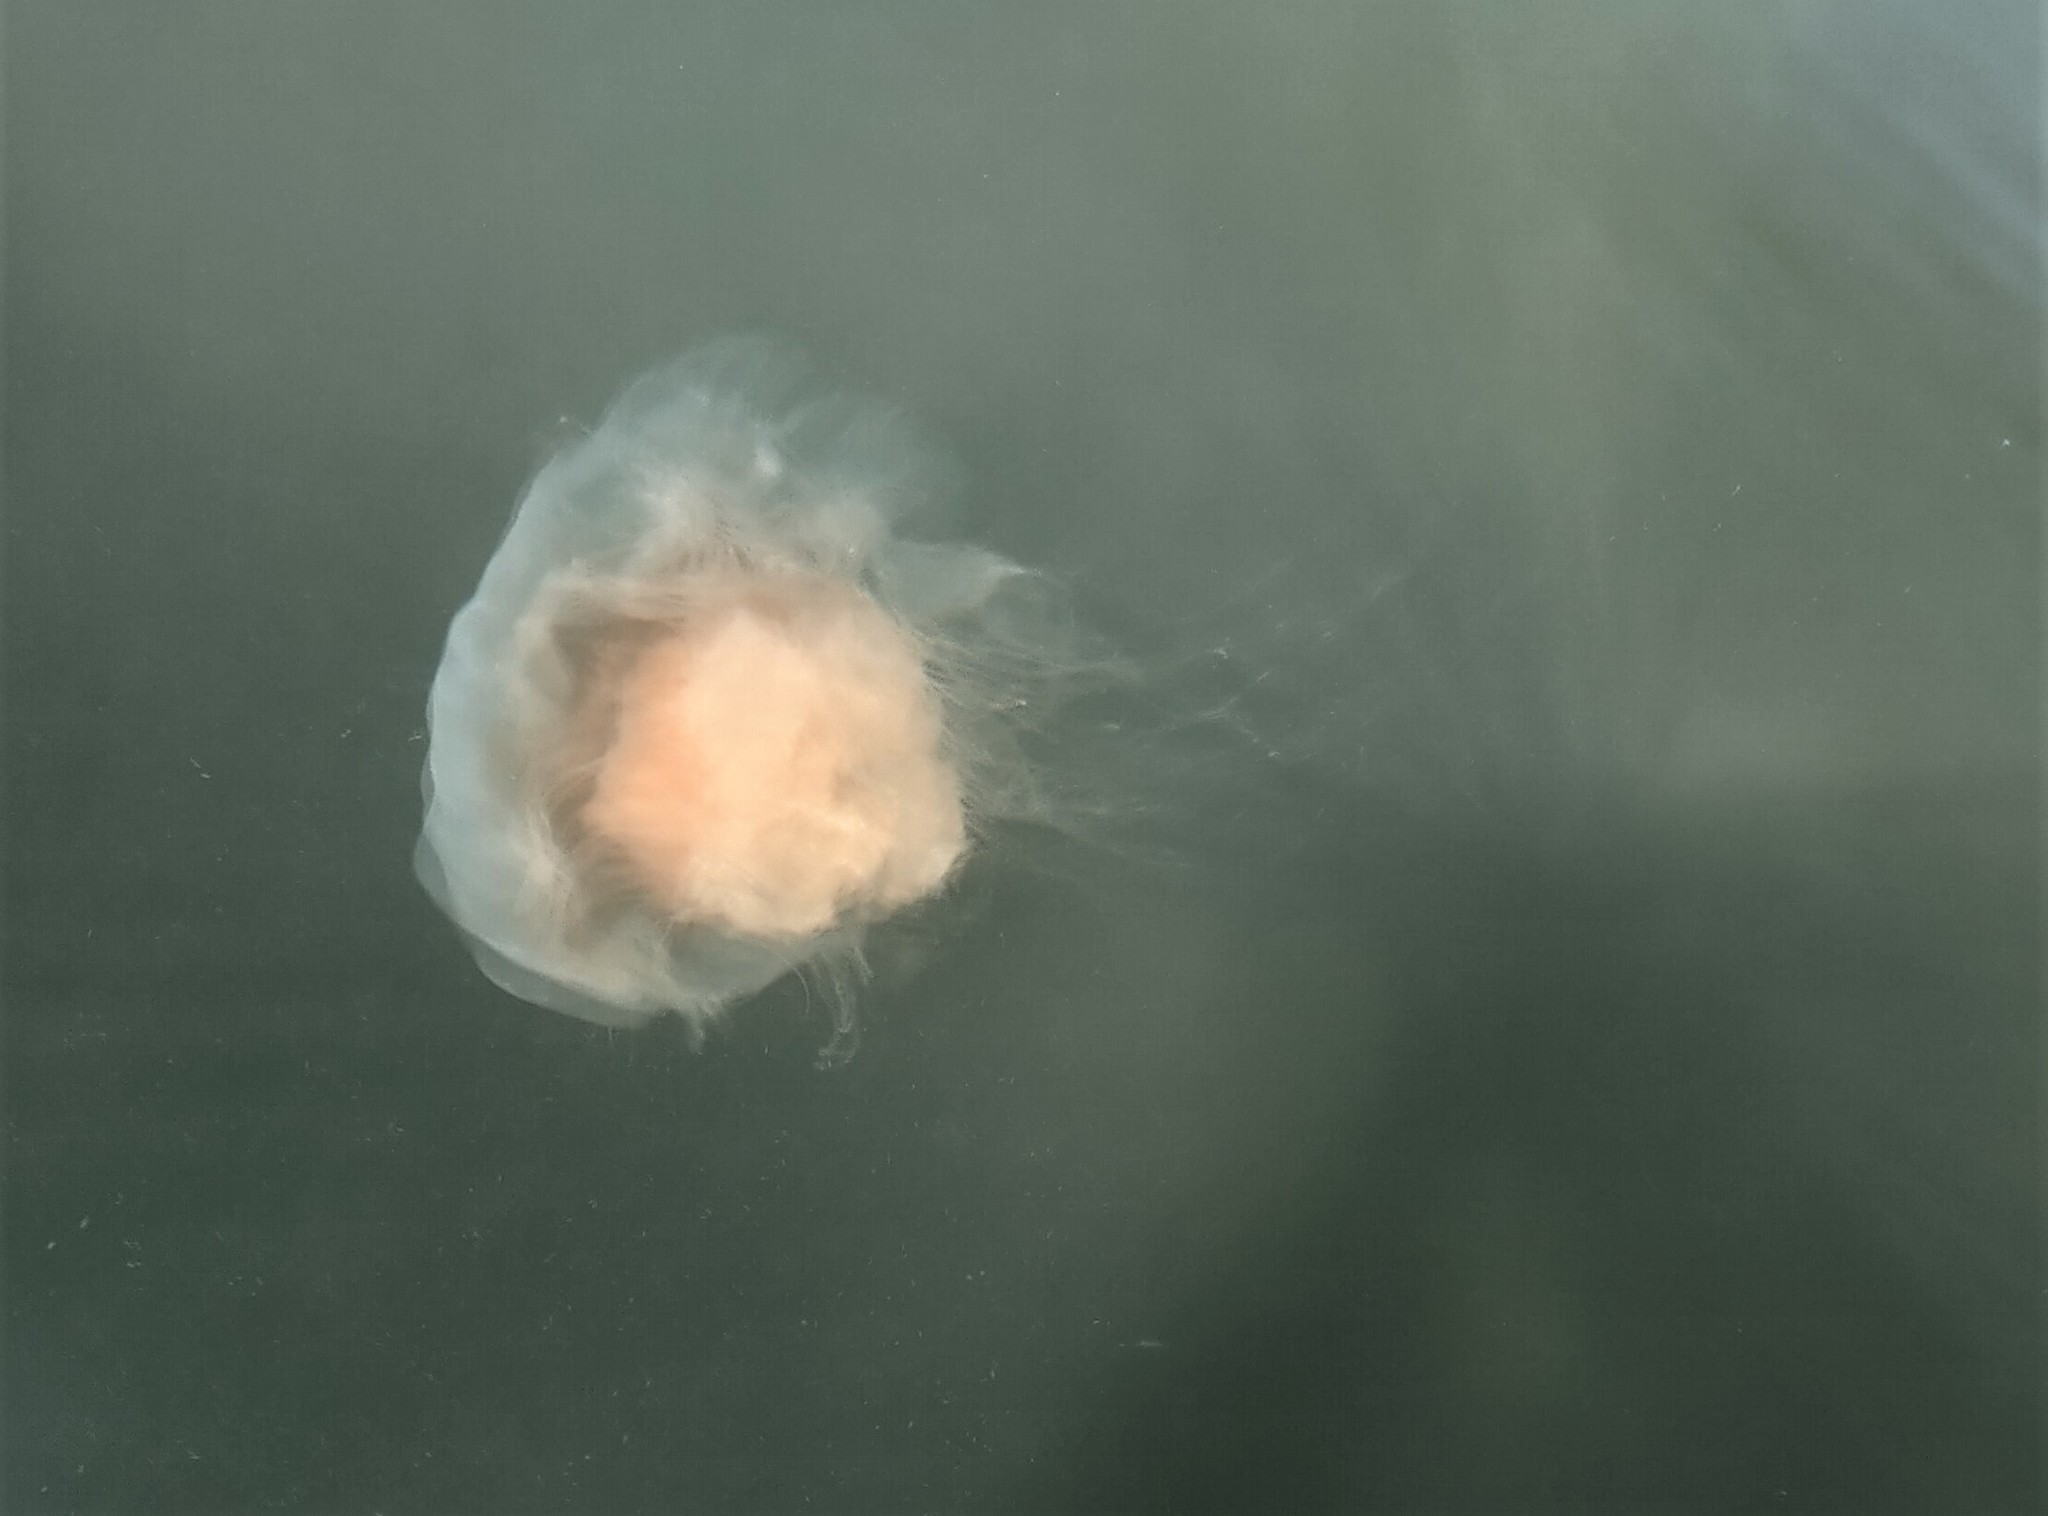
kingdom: Animalia
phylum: Cnidaria
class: Scyphozoa
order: Semaeostomeae
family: Cyaneidae
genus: Cyanea
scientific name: Cyanea fulva
